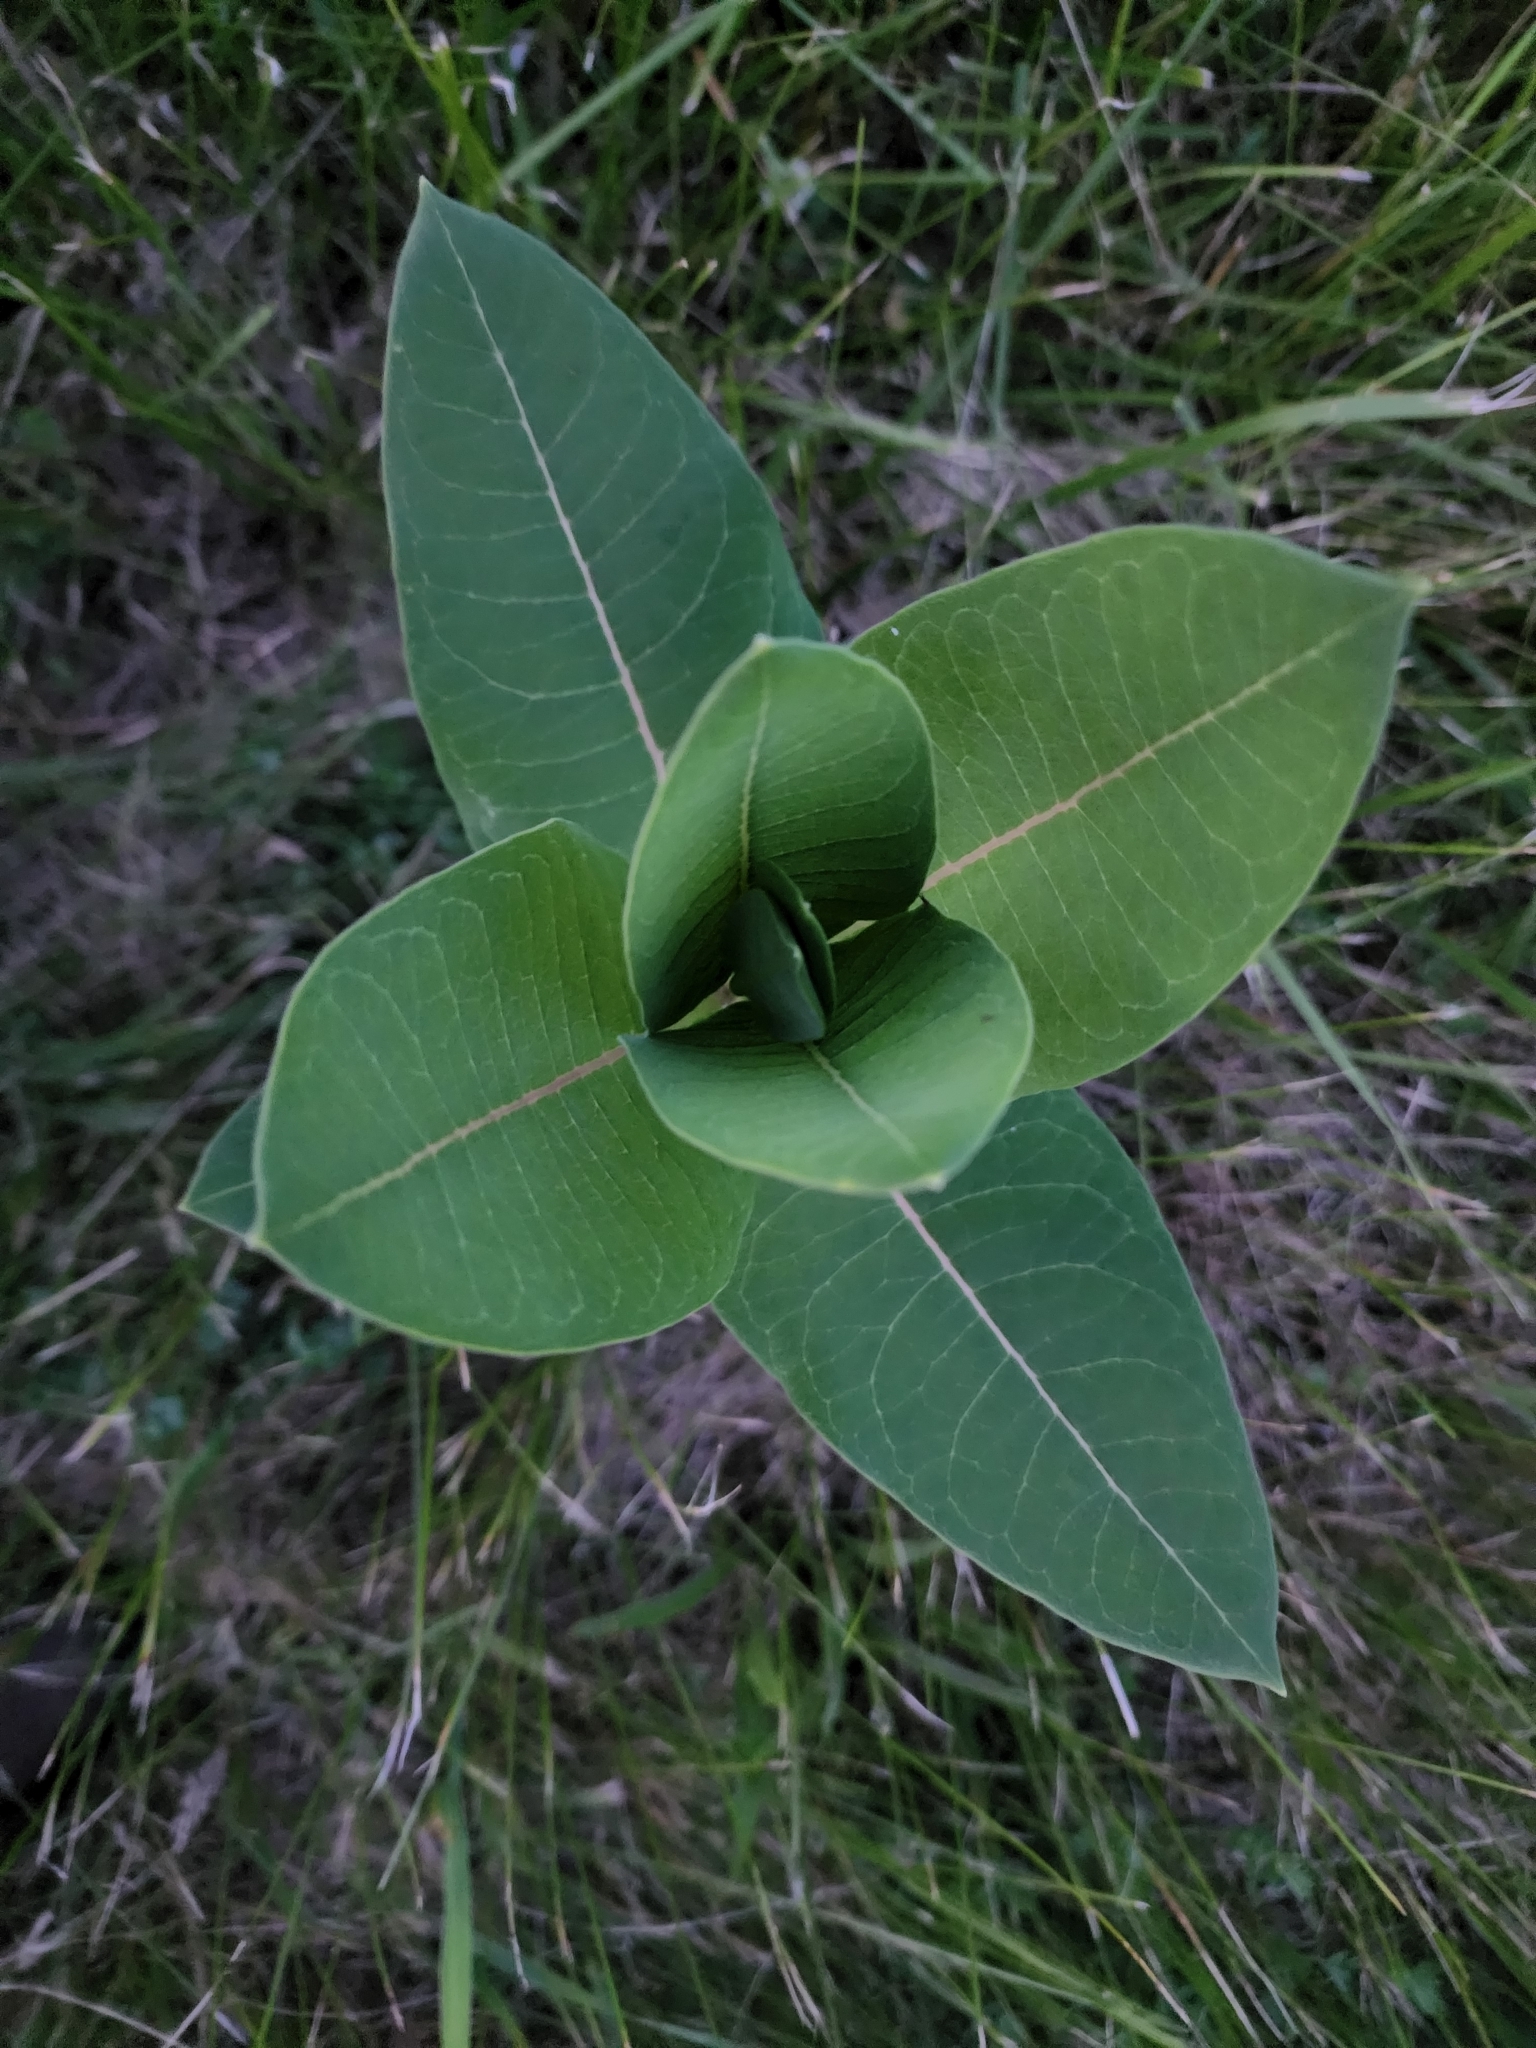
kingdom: Plantae
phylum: Tracheophyta
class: Magnoliopsida
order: Gentianales
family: Apocynaceae
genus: Asclepias
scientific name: Asclepias syriaca
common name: Common milkweed
